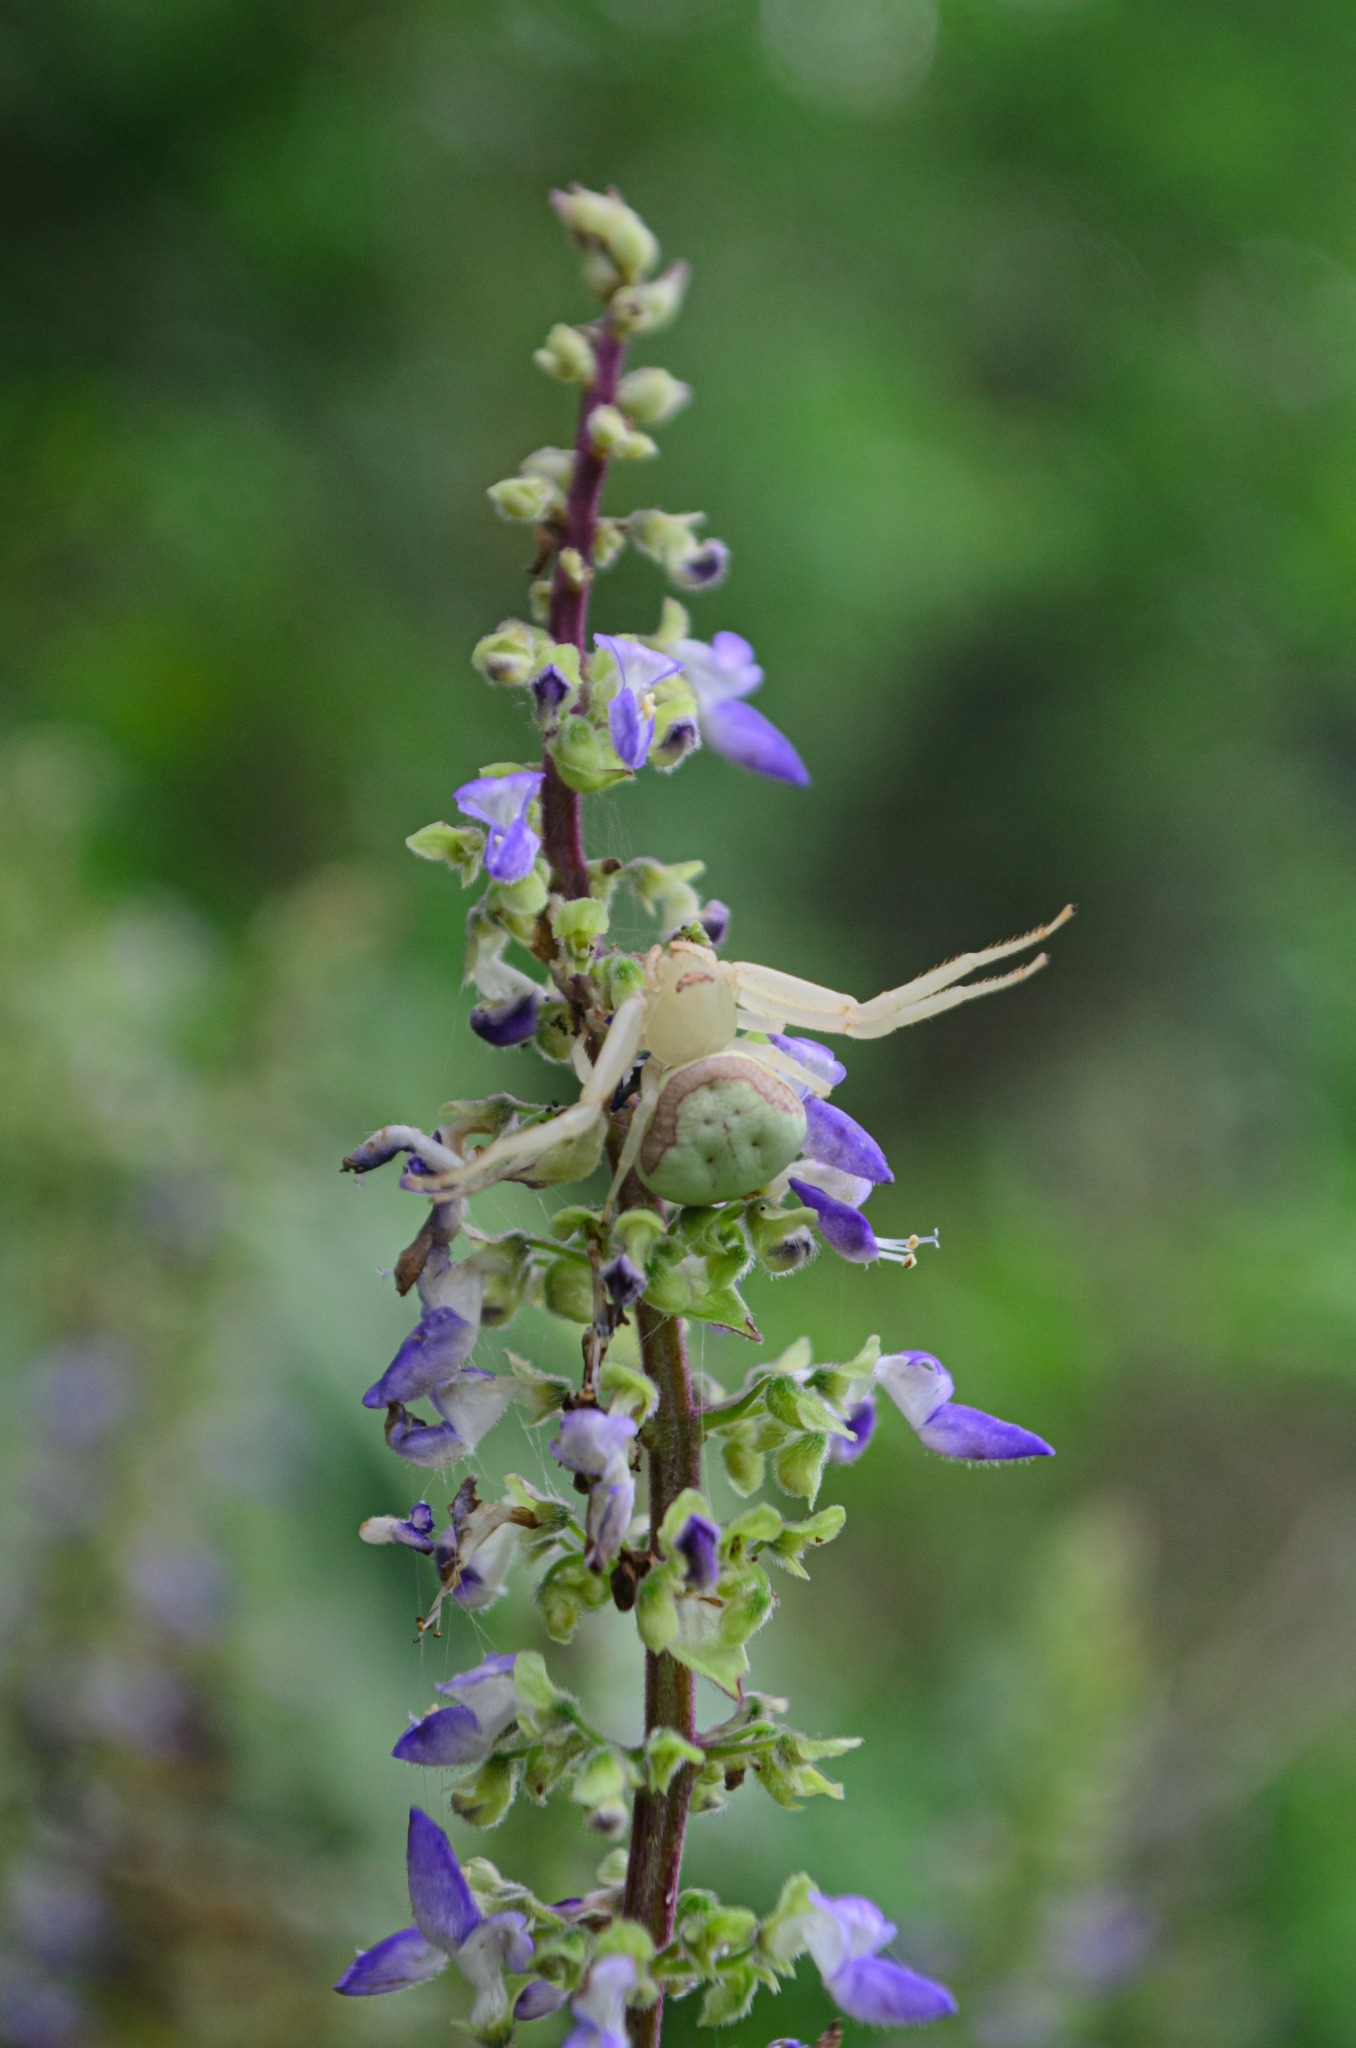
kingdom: Animalia
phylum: Arthropoda
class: Arachnida
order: Araneae
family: Thomisidae
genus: Misumenops
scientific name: Misumenops callinurus
